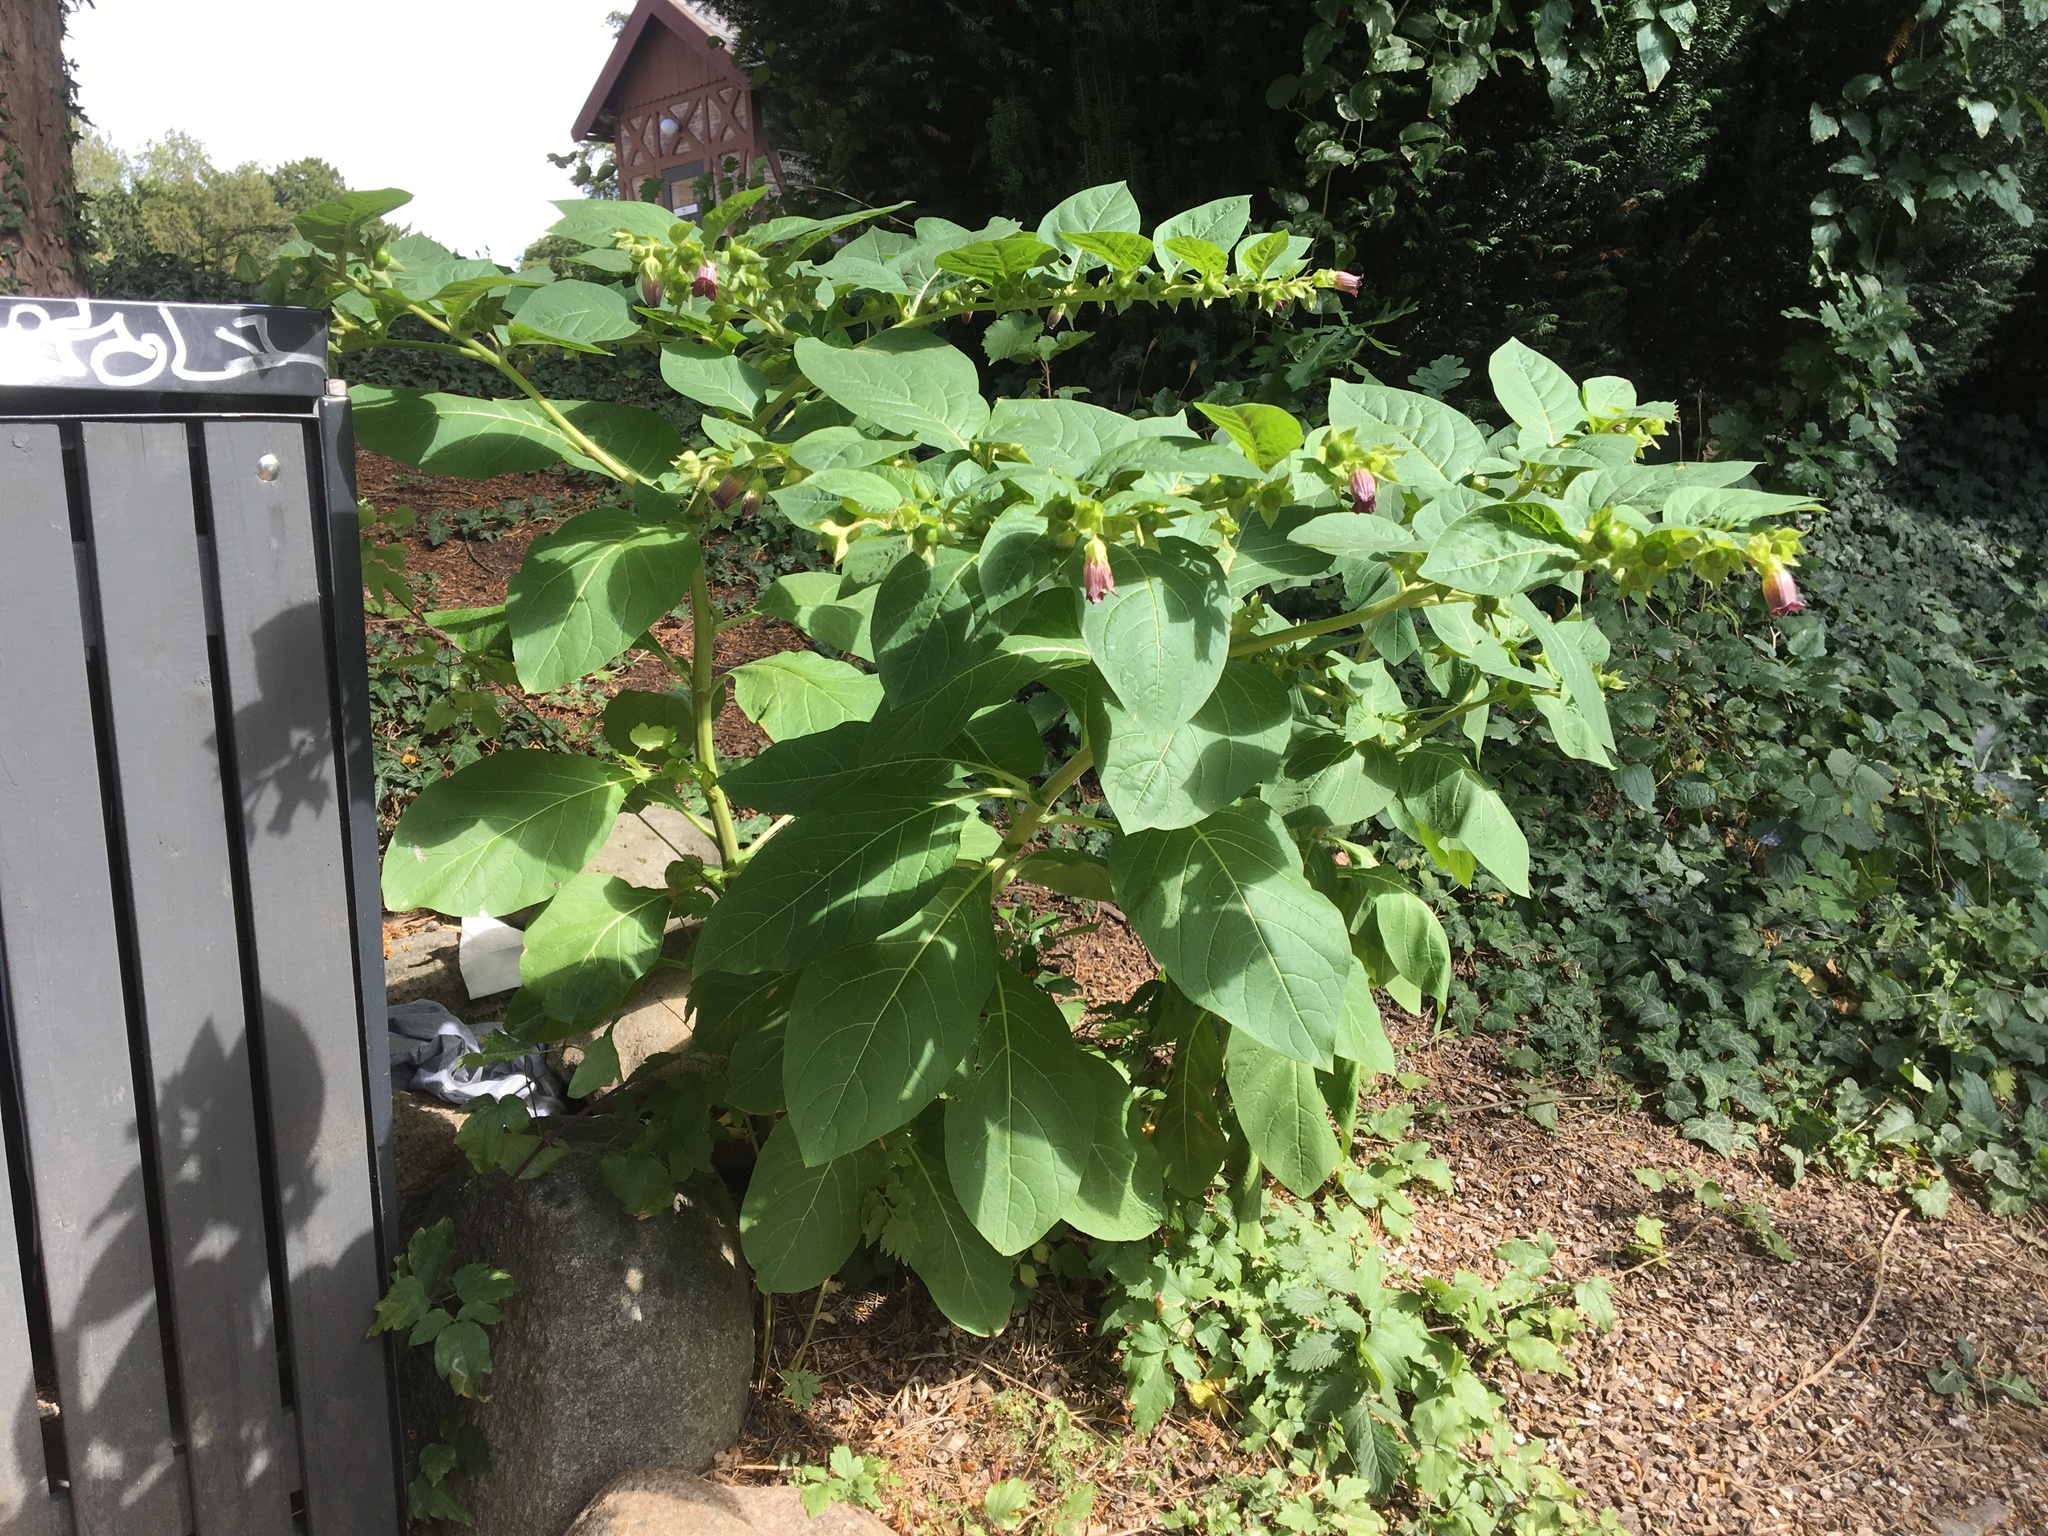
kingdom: Plantae
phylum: Tracheophyta
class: Magnoliopsida
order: Solanales
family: Solanaceae
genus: Atropa
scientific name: Atropa belladonna
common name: Deadly nightshade
